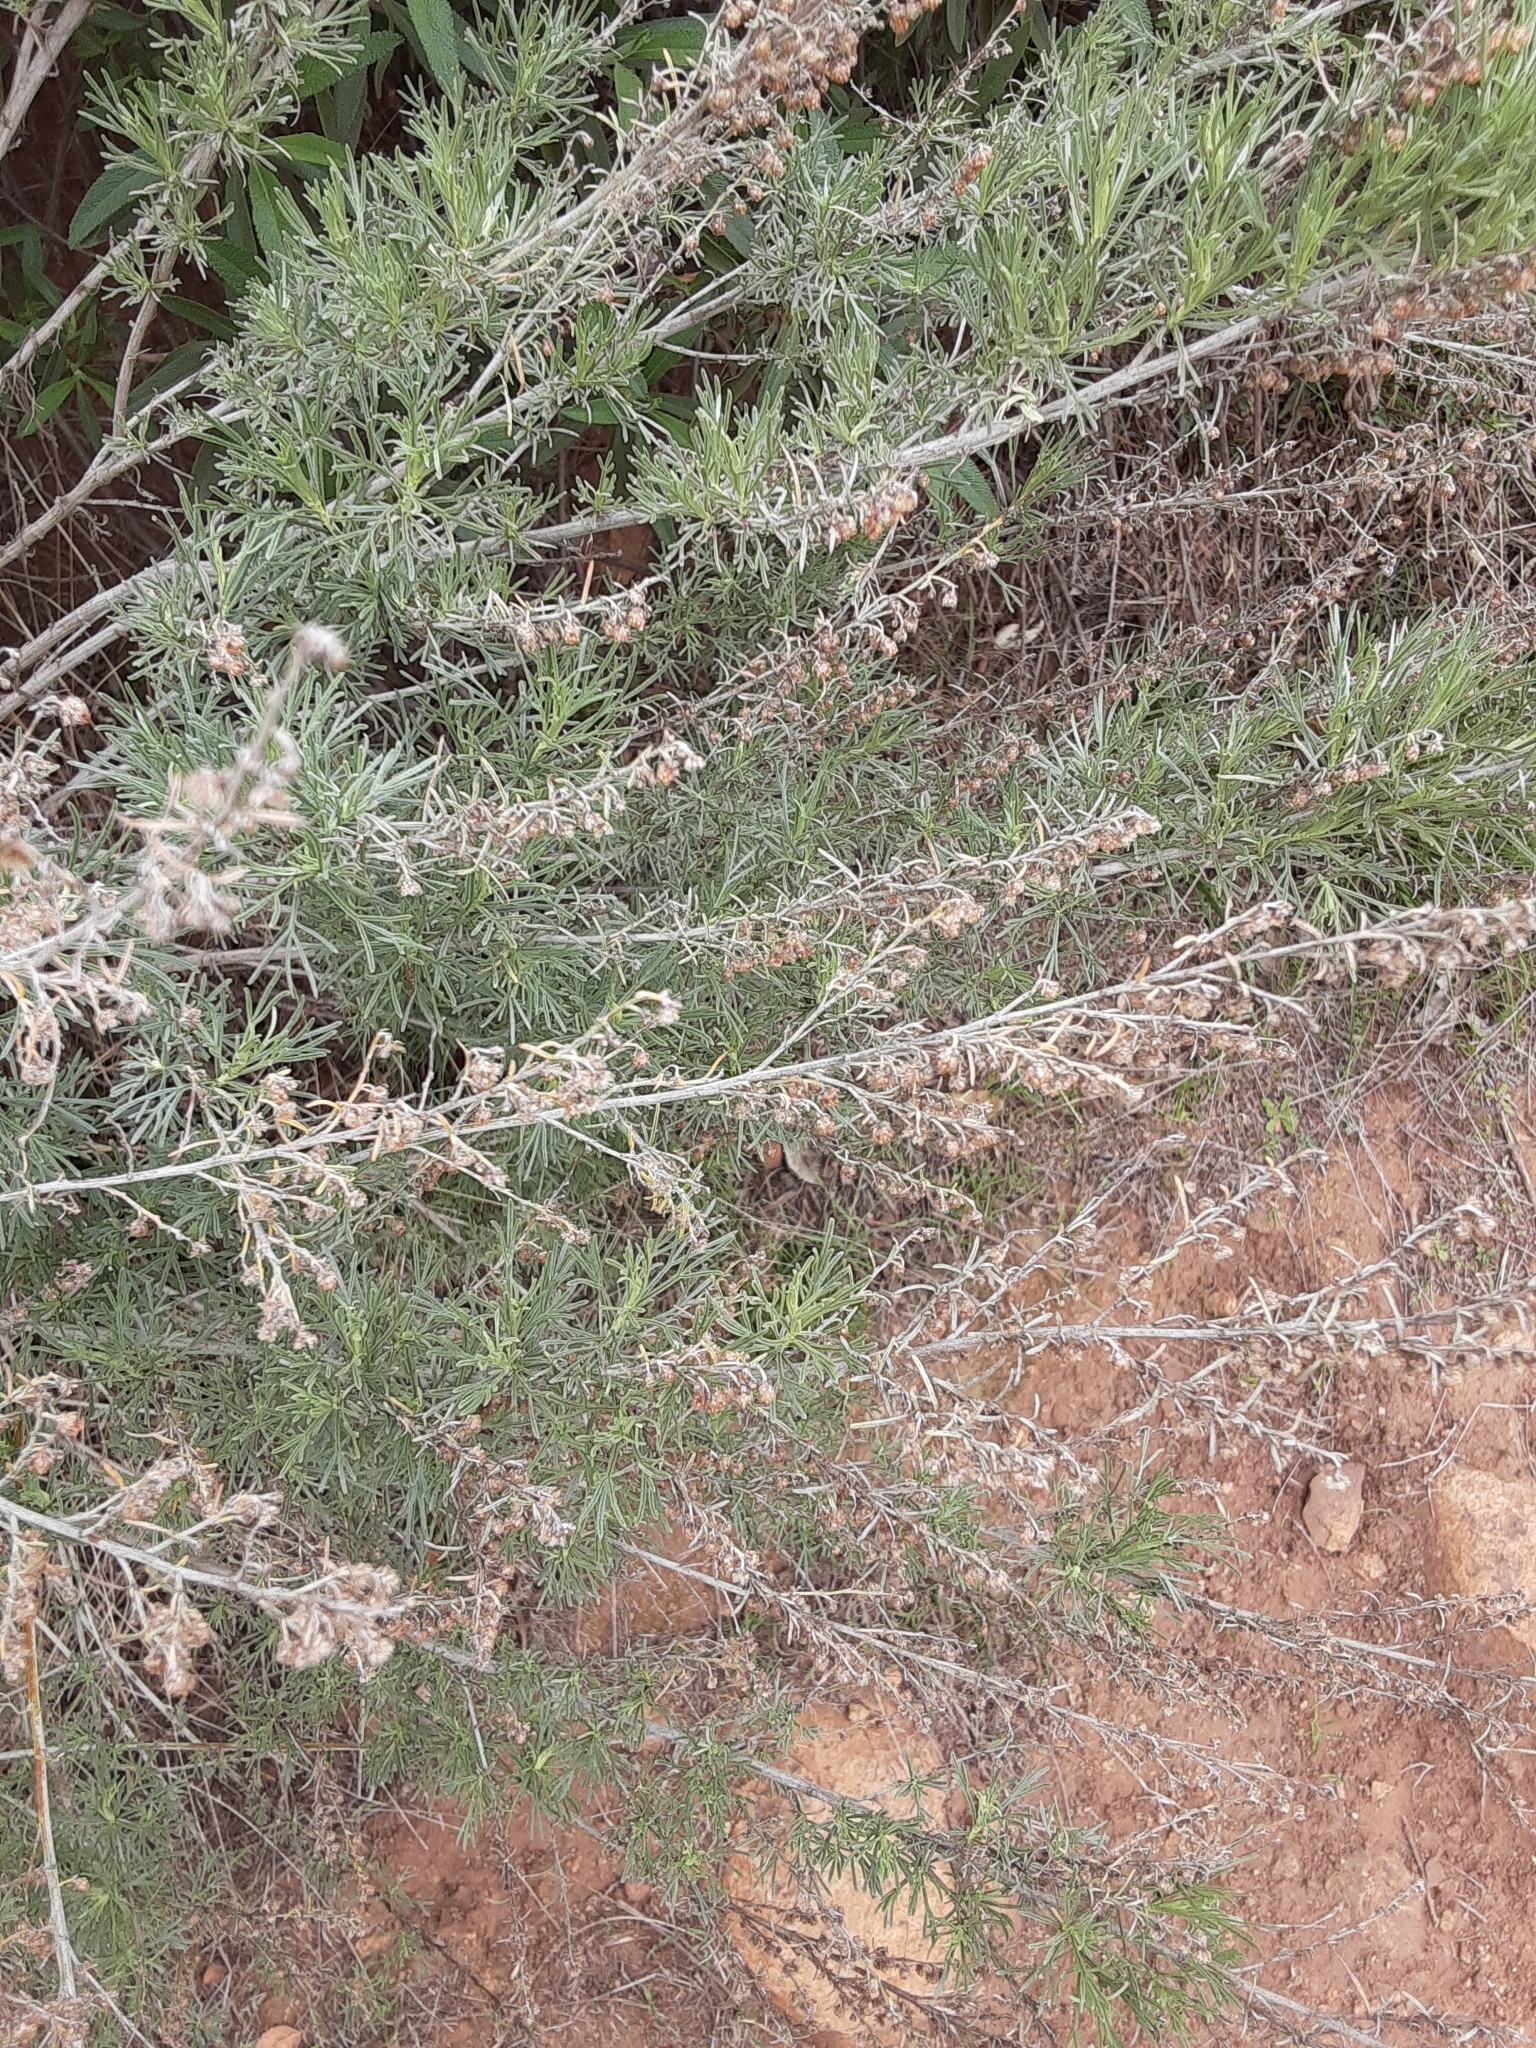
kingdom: Plantae
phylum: Tracheophyta
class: Magnoliopsida
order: Asterales
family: Asteraceae
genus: Artemisia
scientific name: Artemisia californica
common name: California sagebrush
